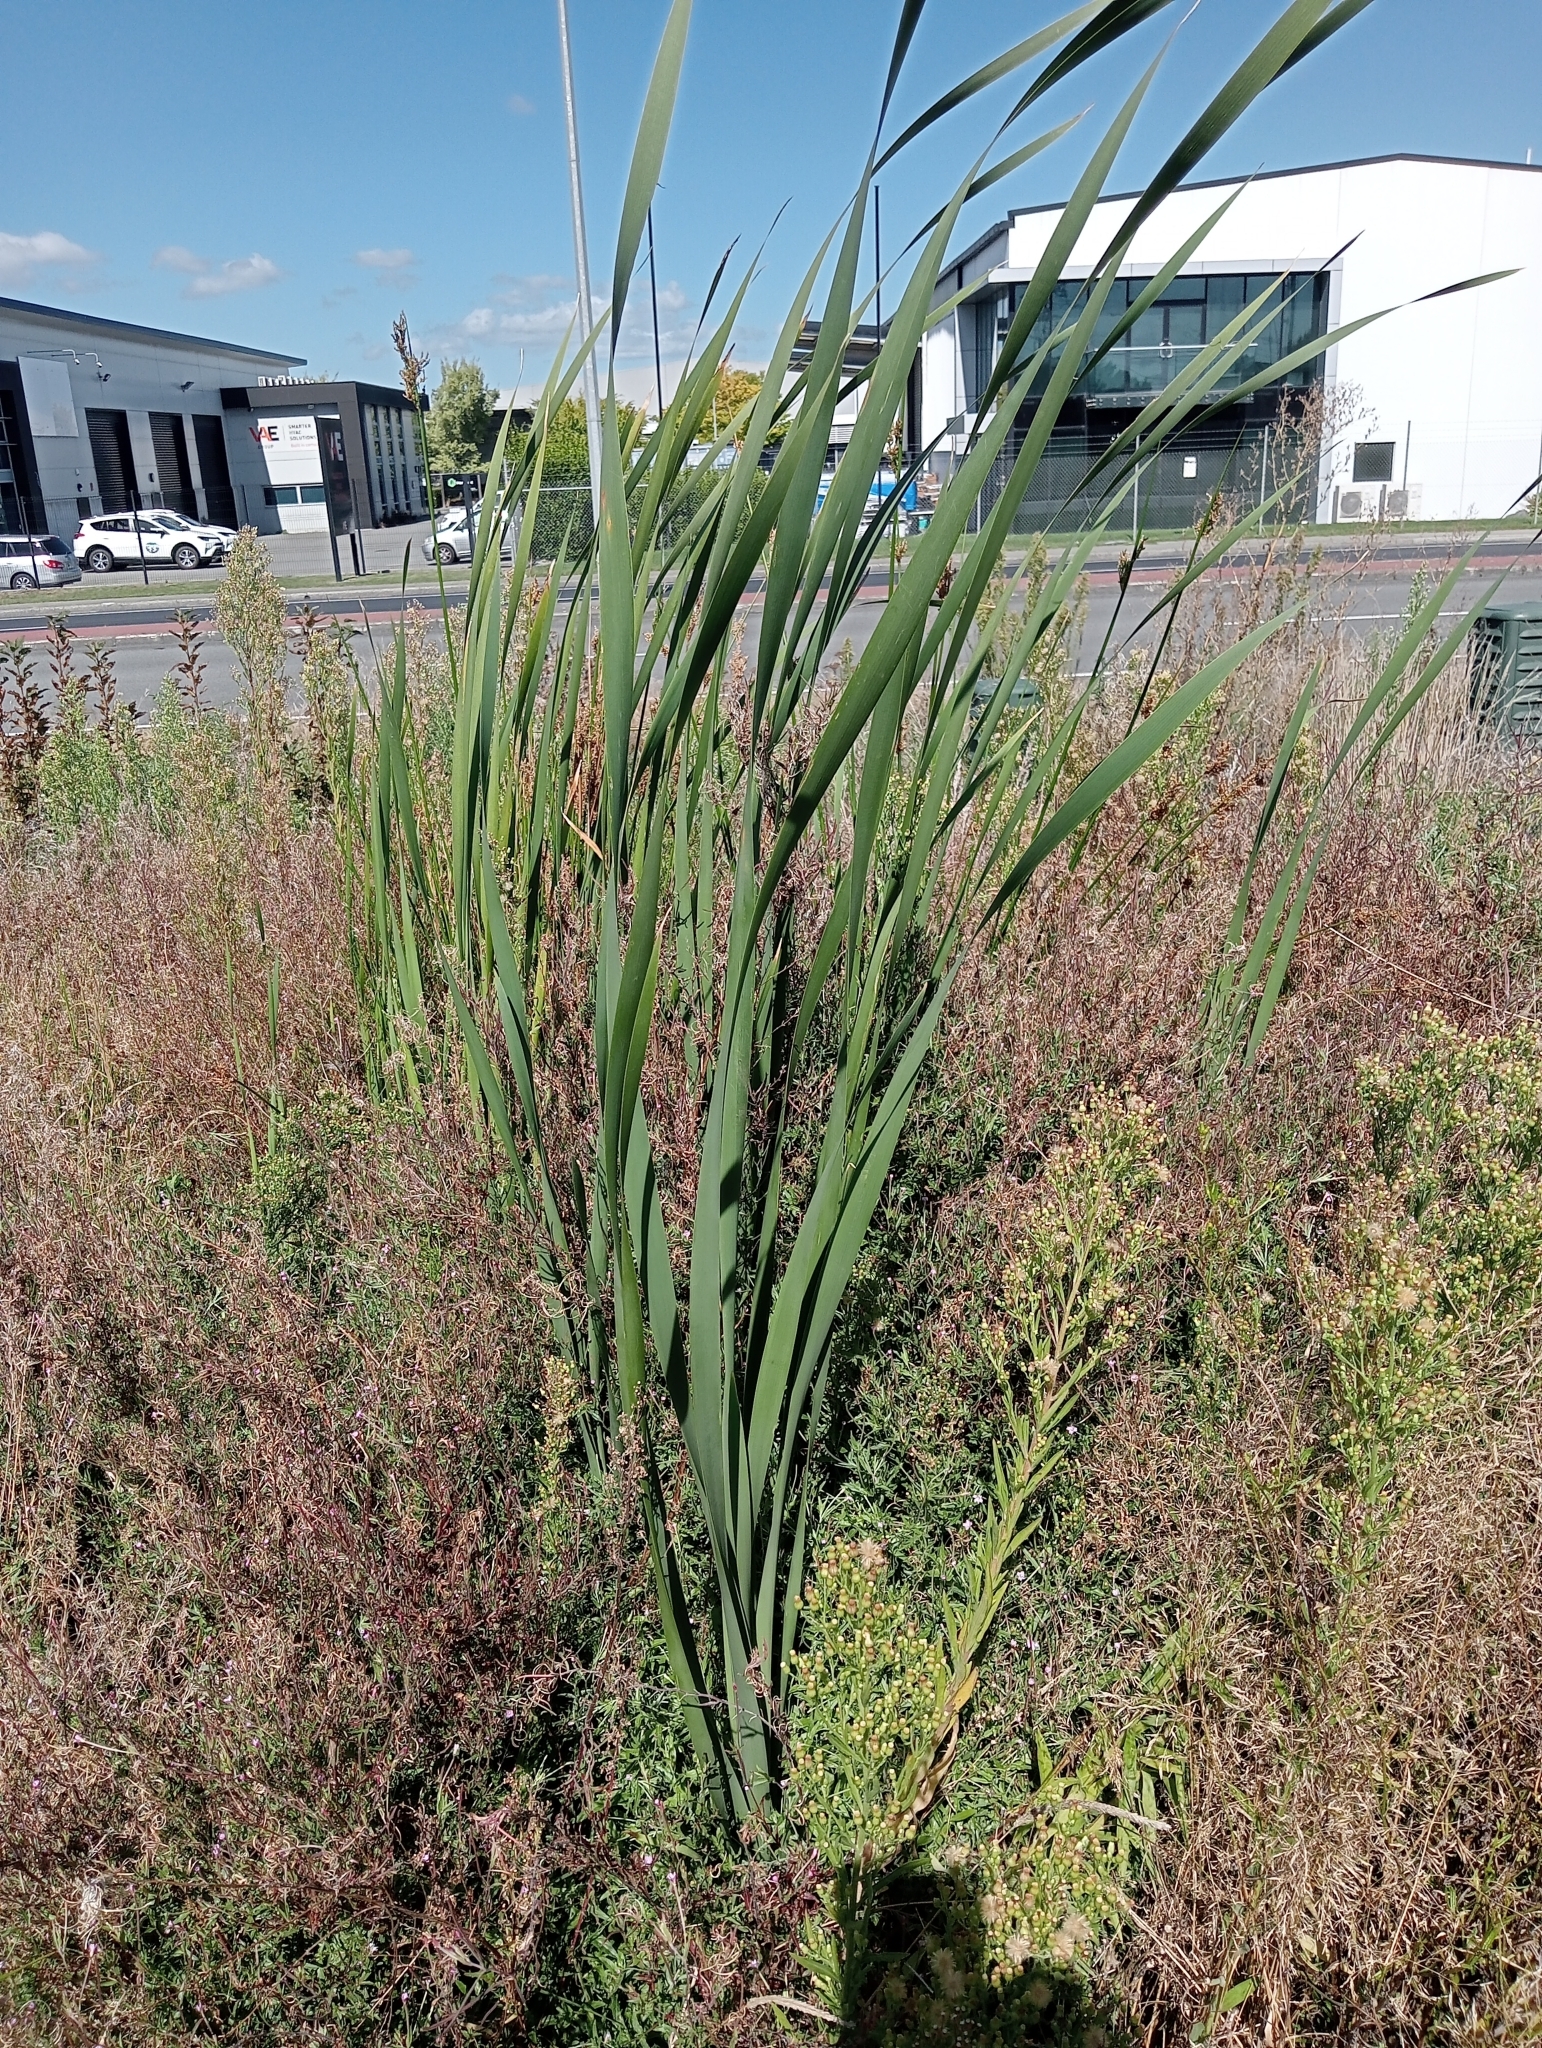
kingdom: Plantae
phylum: Tracheophyta
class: Liliopsida
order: Poales
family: Typhaceae
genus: Typha
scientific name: Typha orientalis
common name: Bullrush
